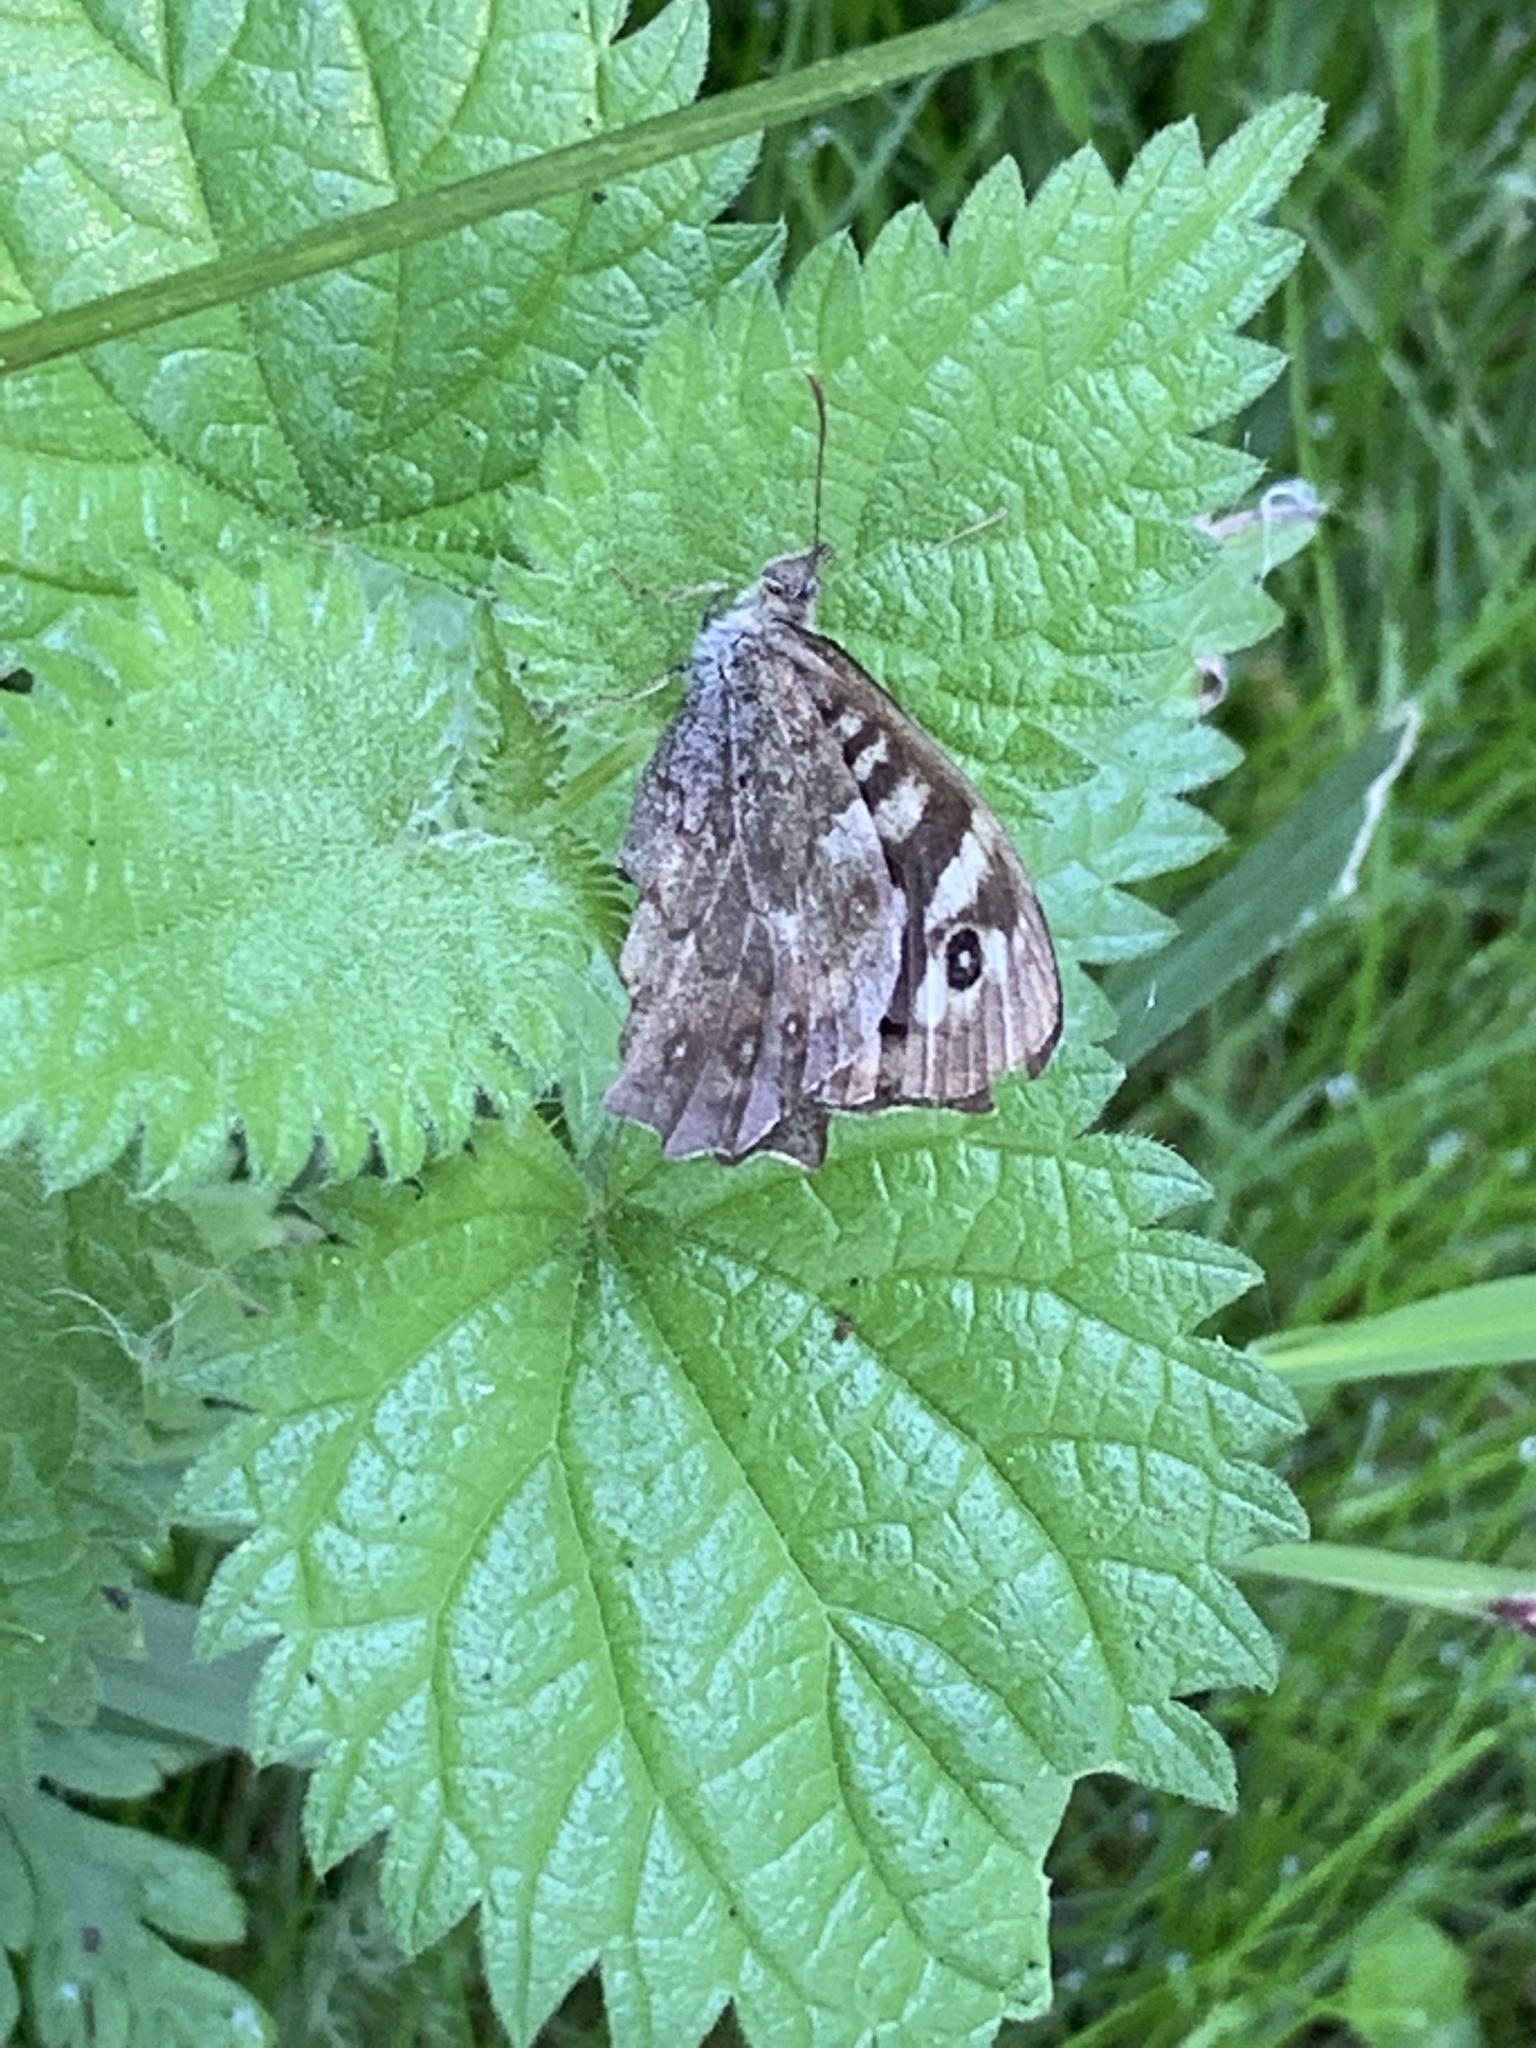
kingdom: Animalia
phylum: Arthropoda
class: Insecta
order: Lepidoptera
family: Nymphalidae
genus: Pararge
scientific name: Pararge aegeria
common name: Speckled wood
